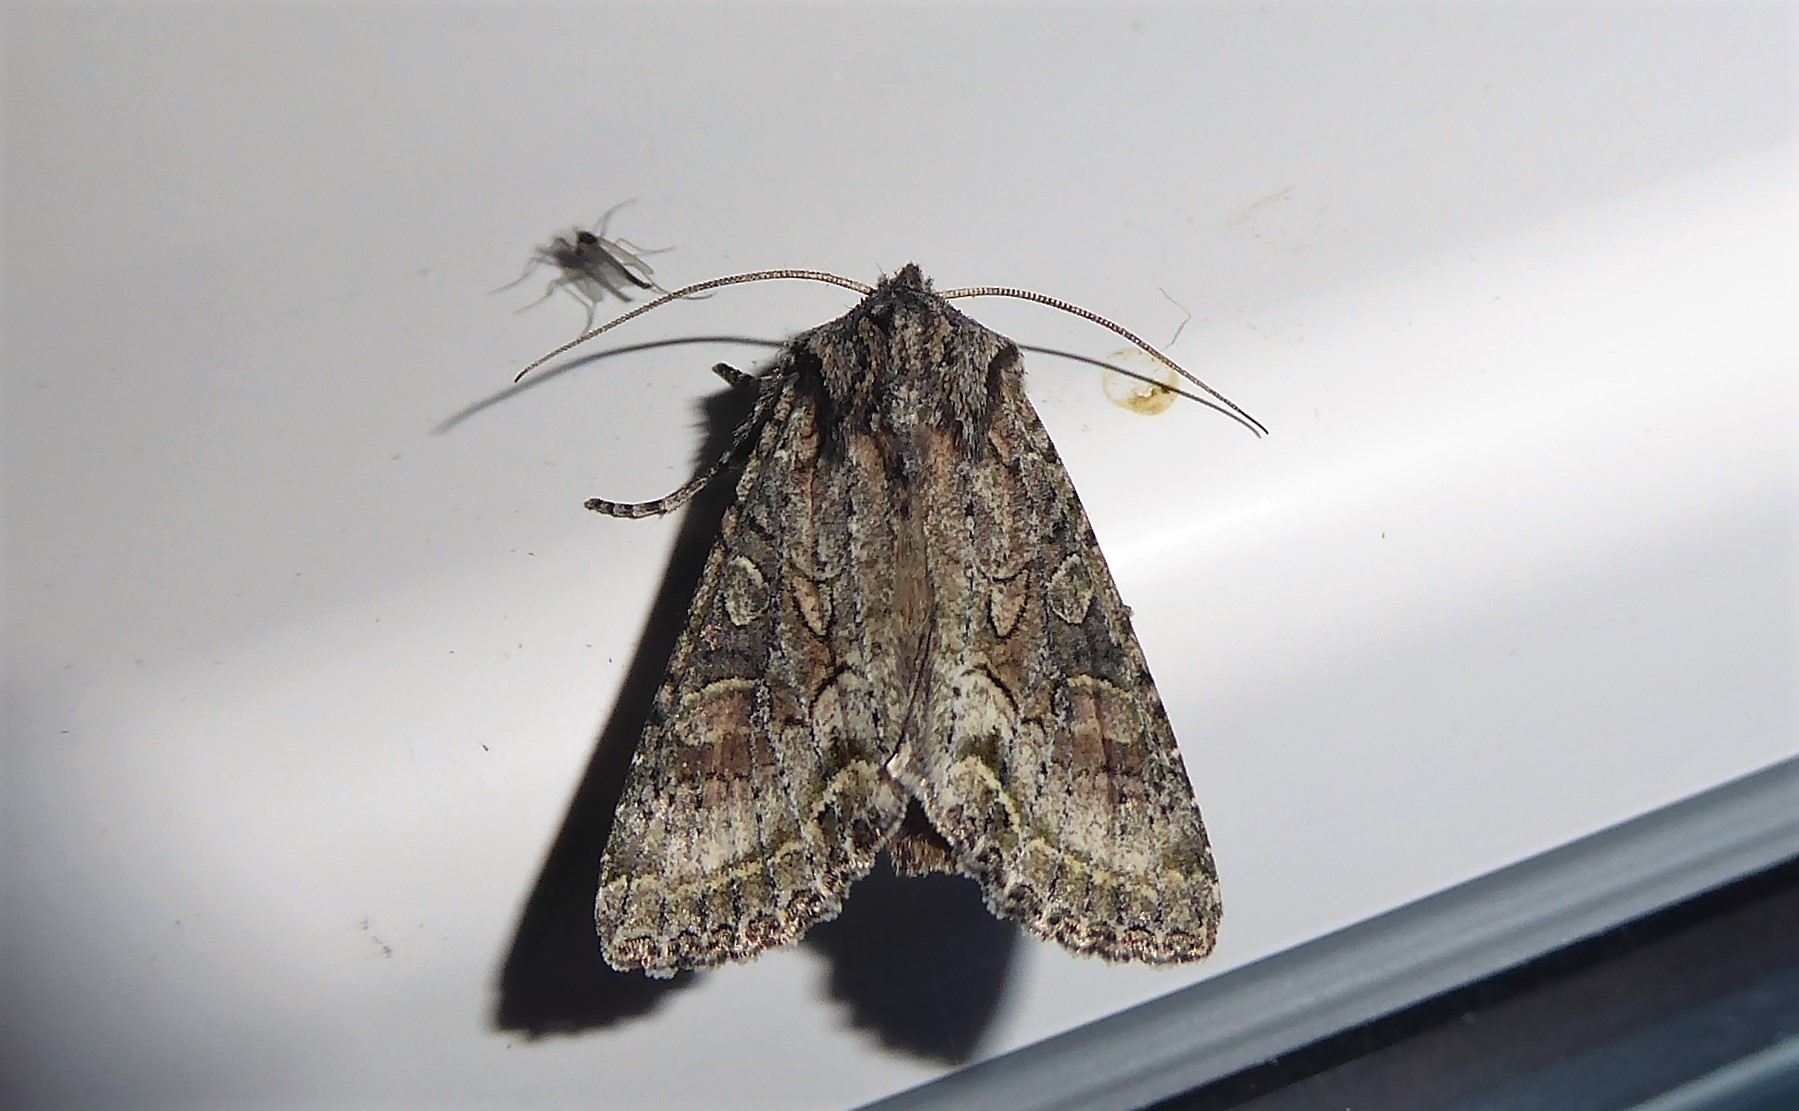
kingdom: Animalia
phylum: Arthropoda
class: Insecta
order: Lepidoptera
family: Noctuidae
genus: Ichneutica
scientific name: Ichneutica mutans
